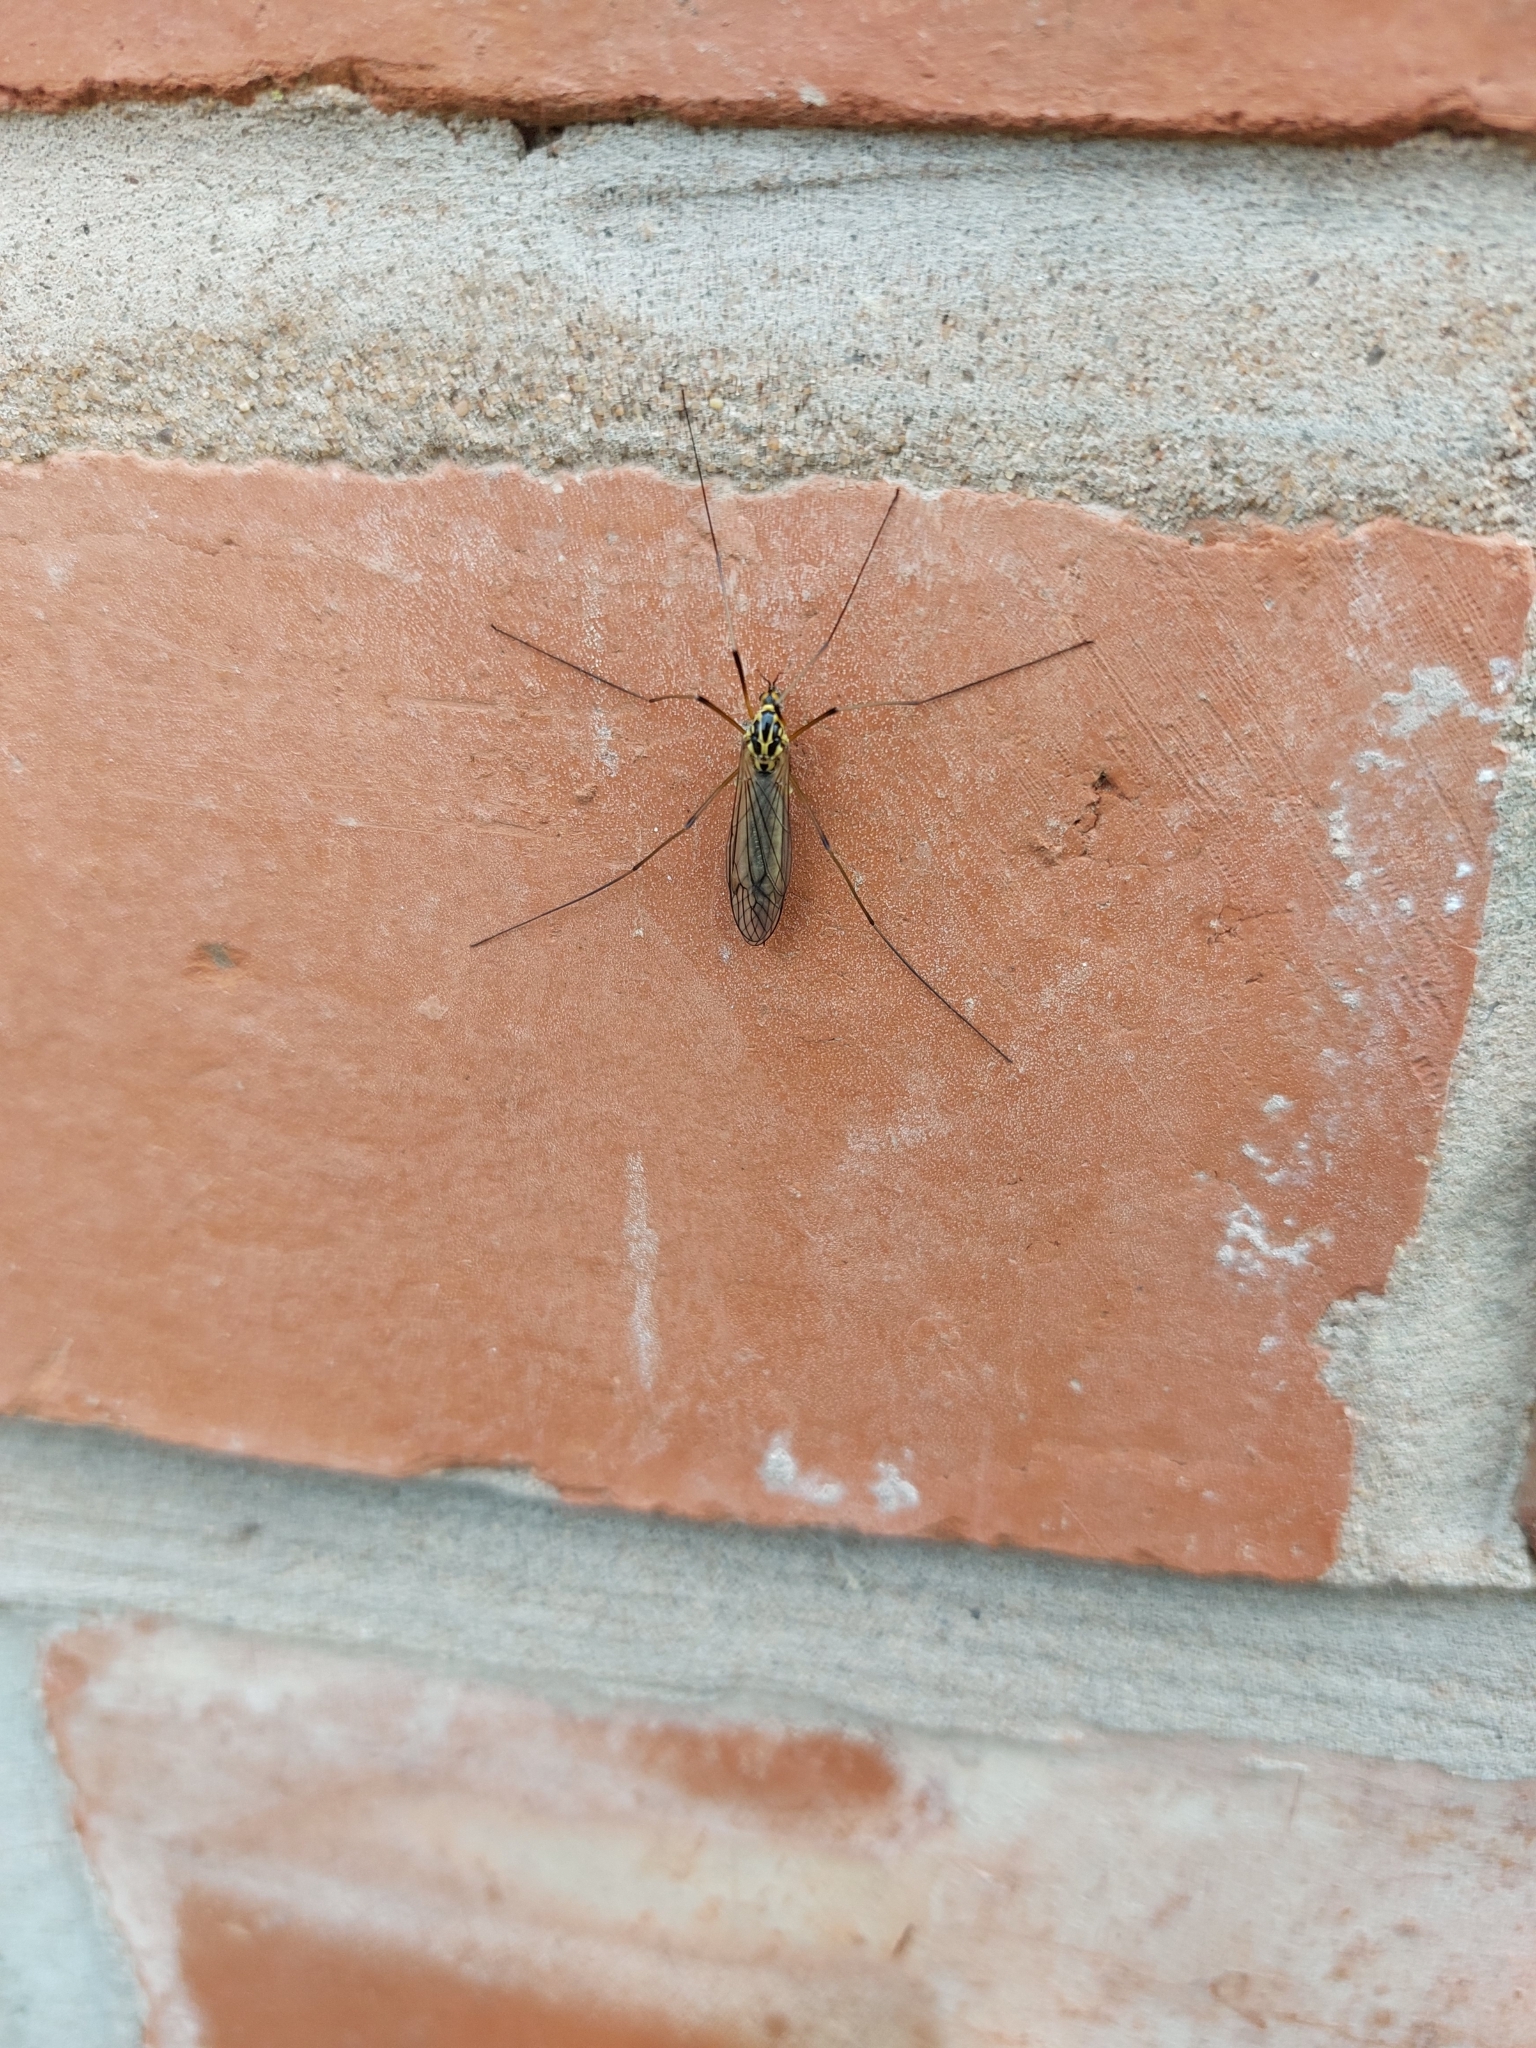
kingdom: Animalia
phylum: Arthropoda
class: Insecta
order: Diptera
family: Tipulidae
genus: Nephrotoma
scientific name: Nephrotoma appendiculata
